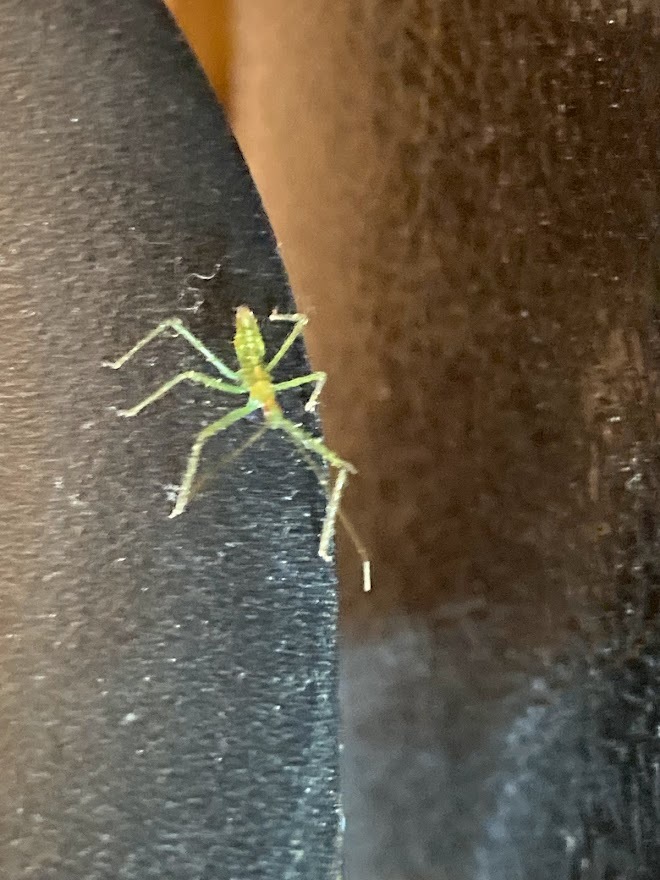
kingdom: Animalia
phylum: Arthropoda
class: Insecta
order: Hemiptera
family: Reduviidae
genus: Zelus
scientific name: Zelus luridus
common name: Pale green assassin bug
